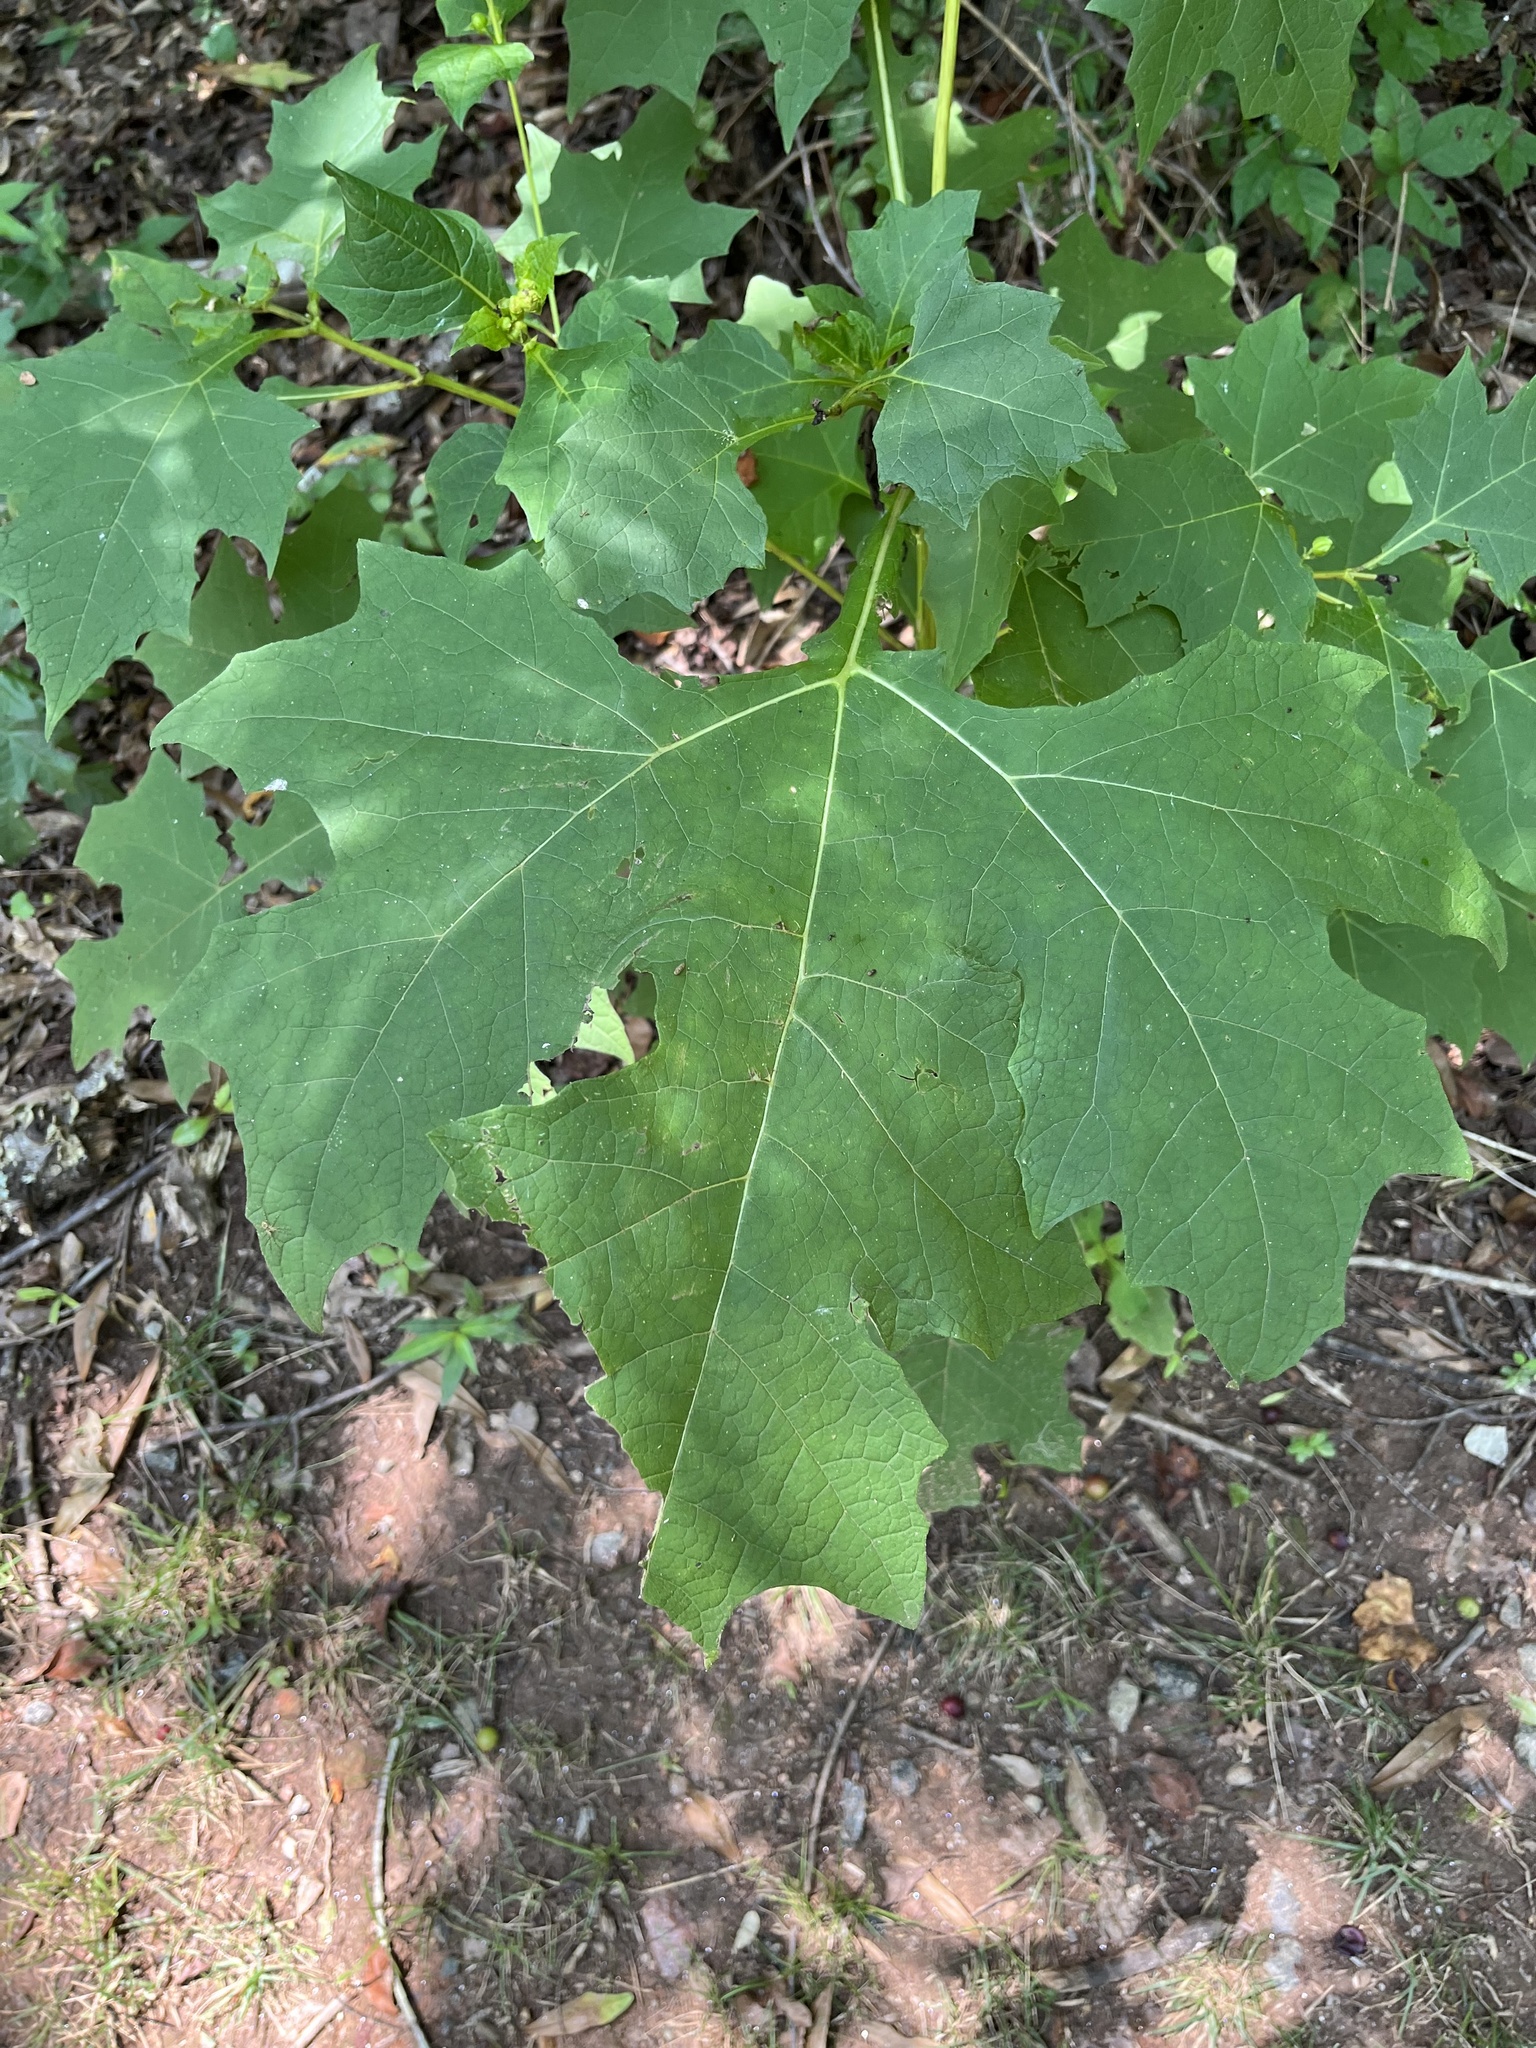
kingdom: Plantae
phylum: Tracheophyta
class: Magnoliopsida
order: Asterales
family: Asteraceae
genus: Smallanthus
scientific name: Smallanthus uvedalia
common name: Bear's-foot
